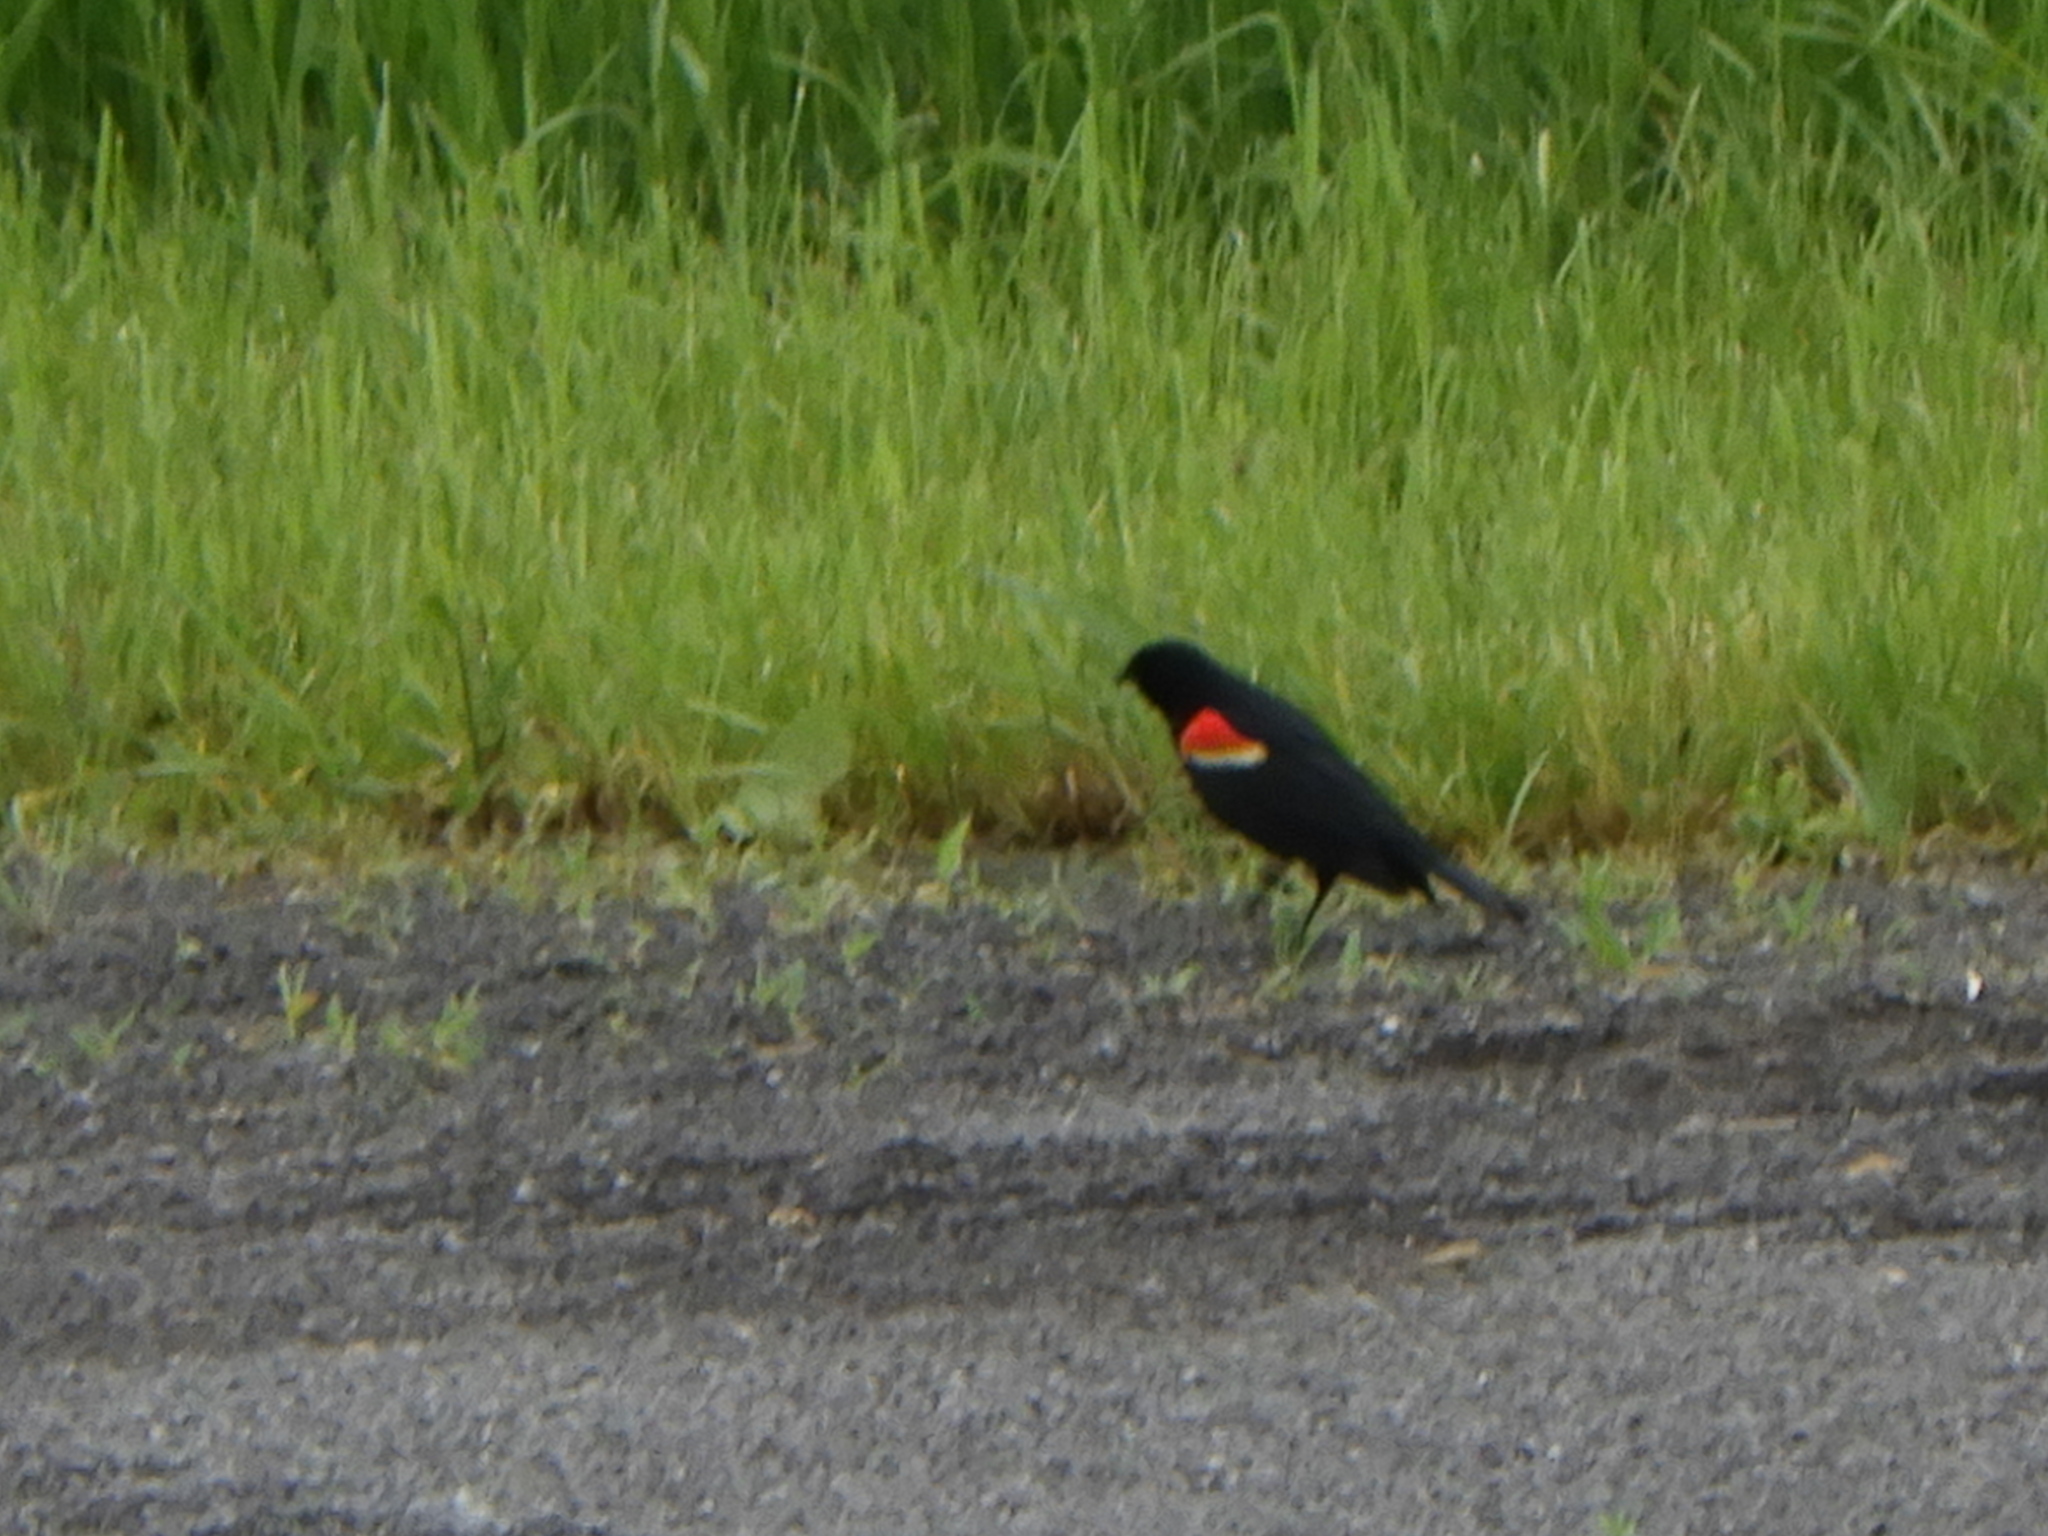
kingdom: Animalia
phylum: Chordata
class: Aves
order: Passeriformes
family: Icteridae
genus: Agelaius
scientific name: Agelaius phoeniceus
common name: Red-winged blackbird
